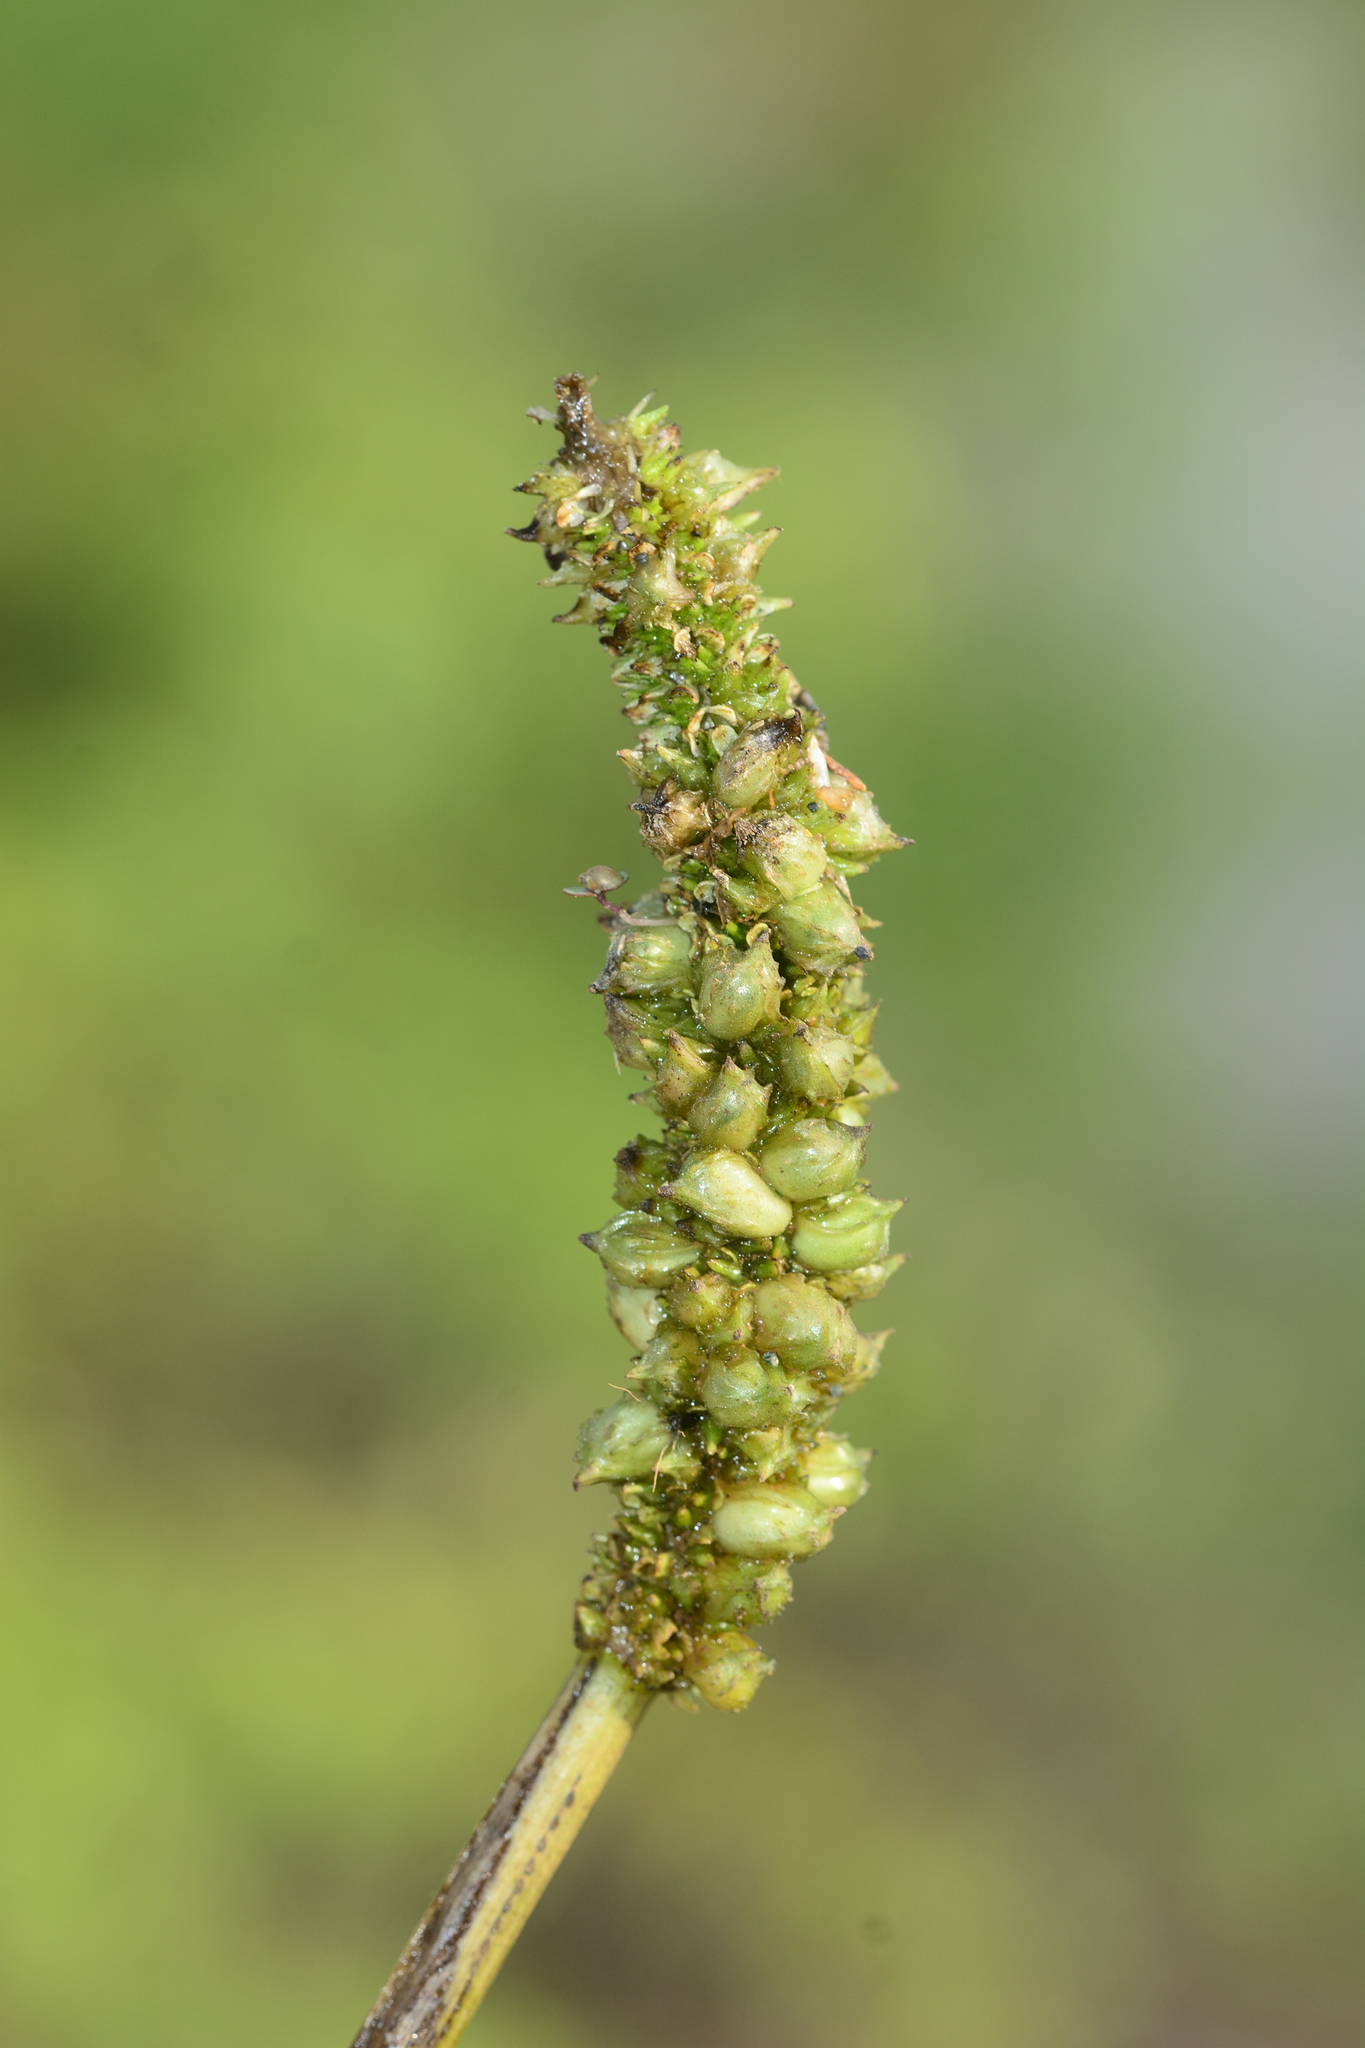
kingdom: Plantae
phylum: Tracheophyta
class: Liliopsida
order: Alismatales
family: Aponogetonaceae
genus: Aponogeton
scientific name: Aponogeton crispus
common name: Crinkled aponogeton
